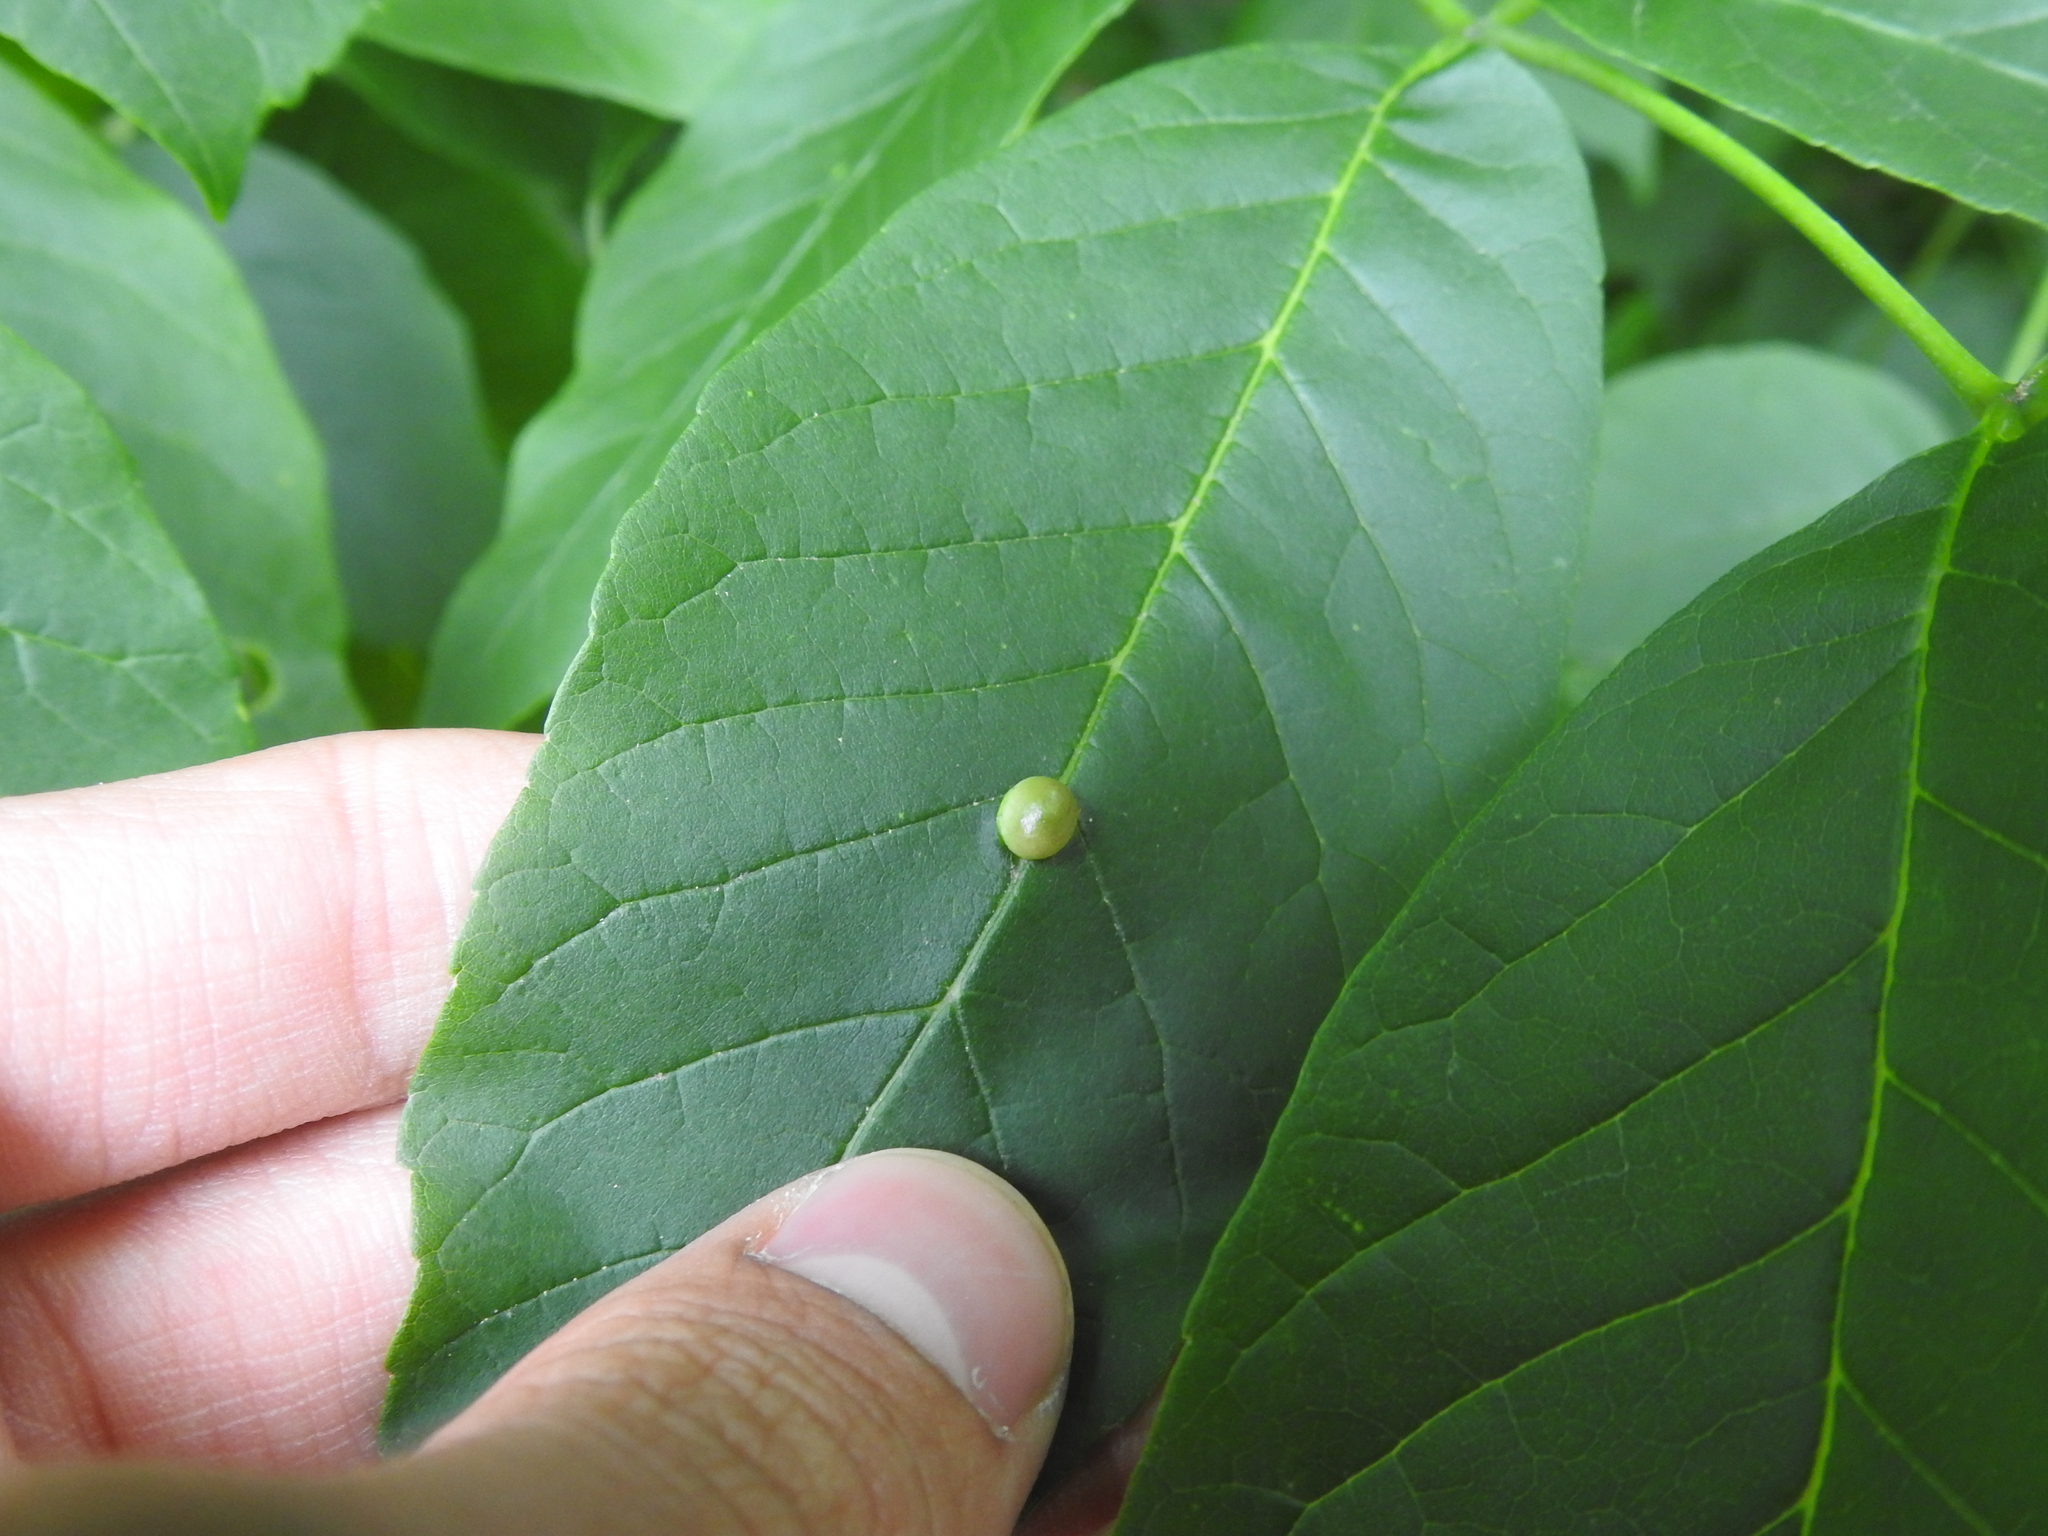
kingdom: Animalia
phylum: Arthropoda
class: Insecta
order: Diptera
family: Cecidomyiidae
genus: Dasineura
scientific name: Dasineura pellex
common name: Ash bullet gall midge
